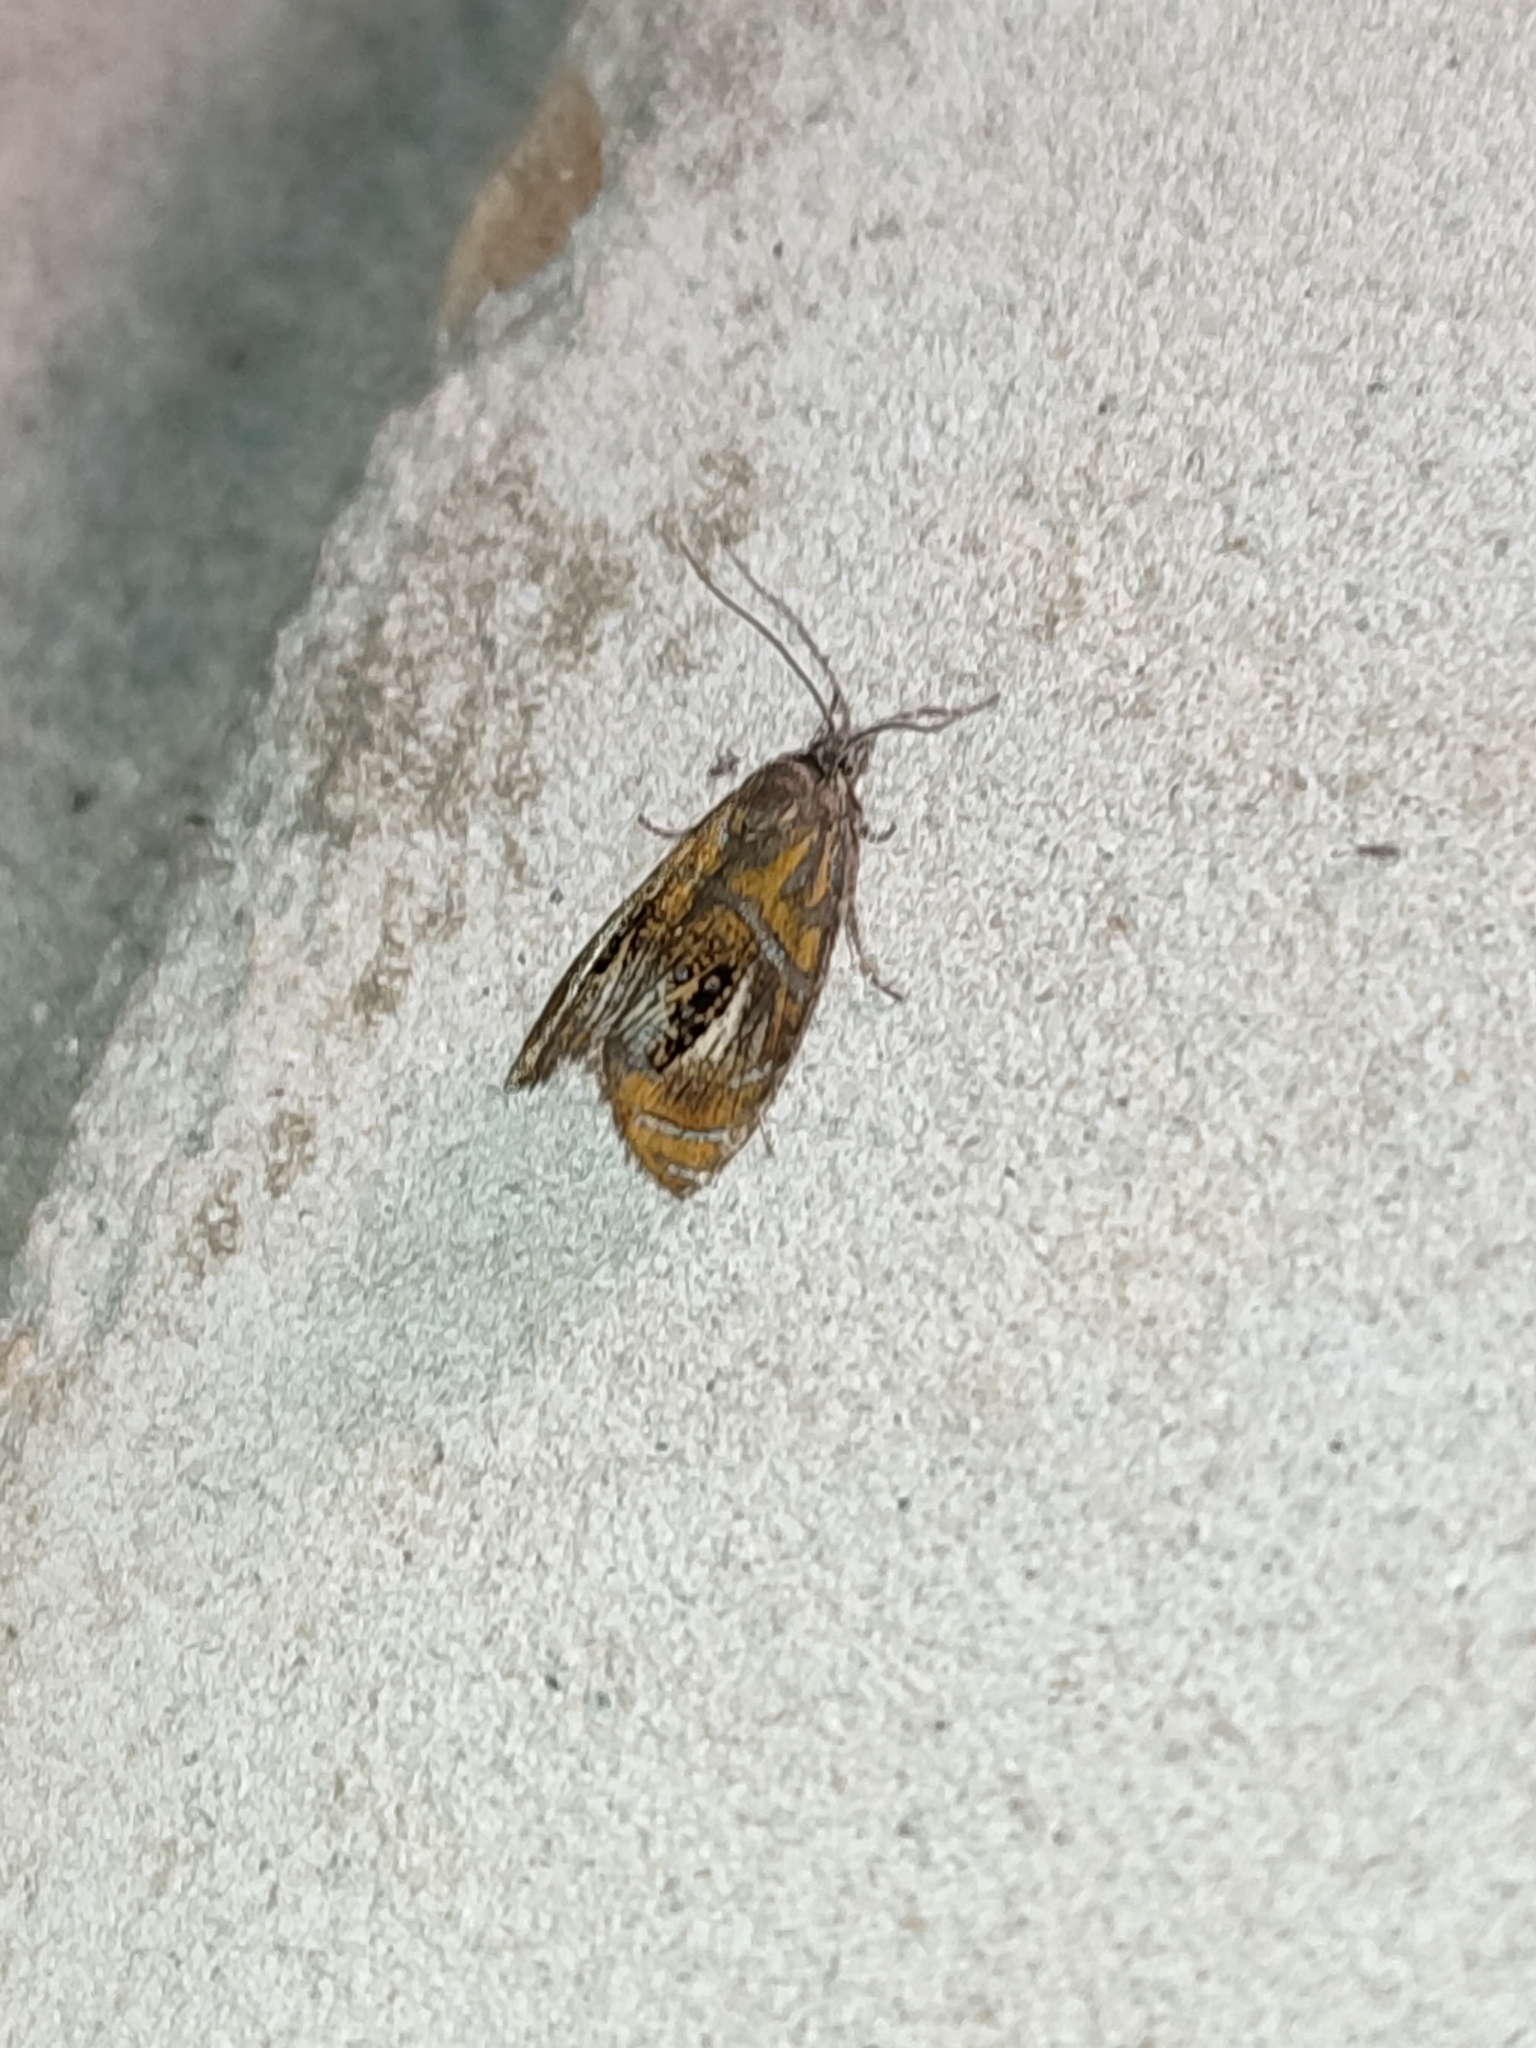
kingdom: Animalia
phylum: Arthropoda
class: Insecta
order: Lepidoptera
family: Tortricidae
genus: Olethreutes
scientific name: Olethreutes arcuella
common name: Arched marble
